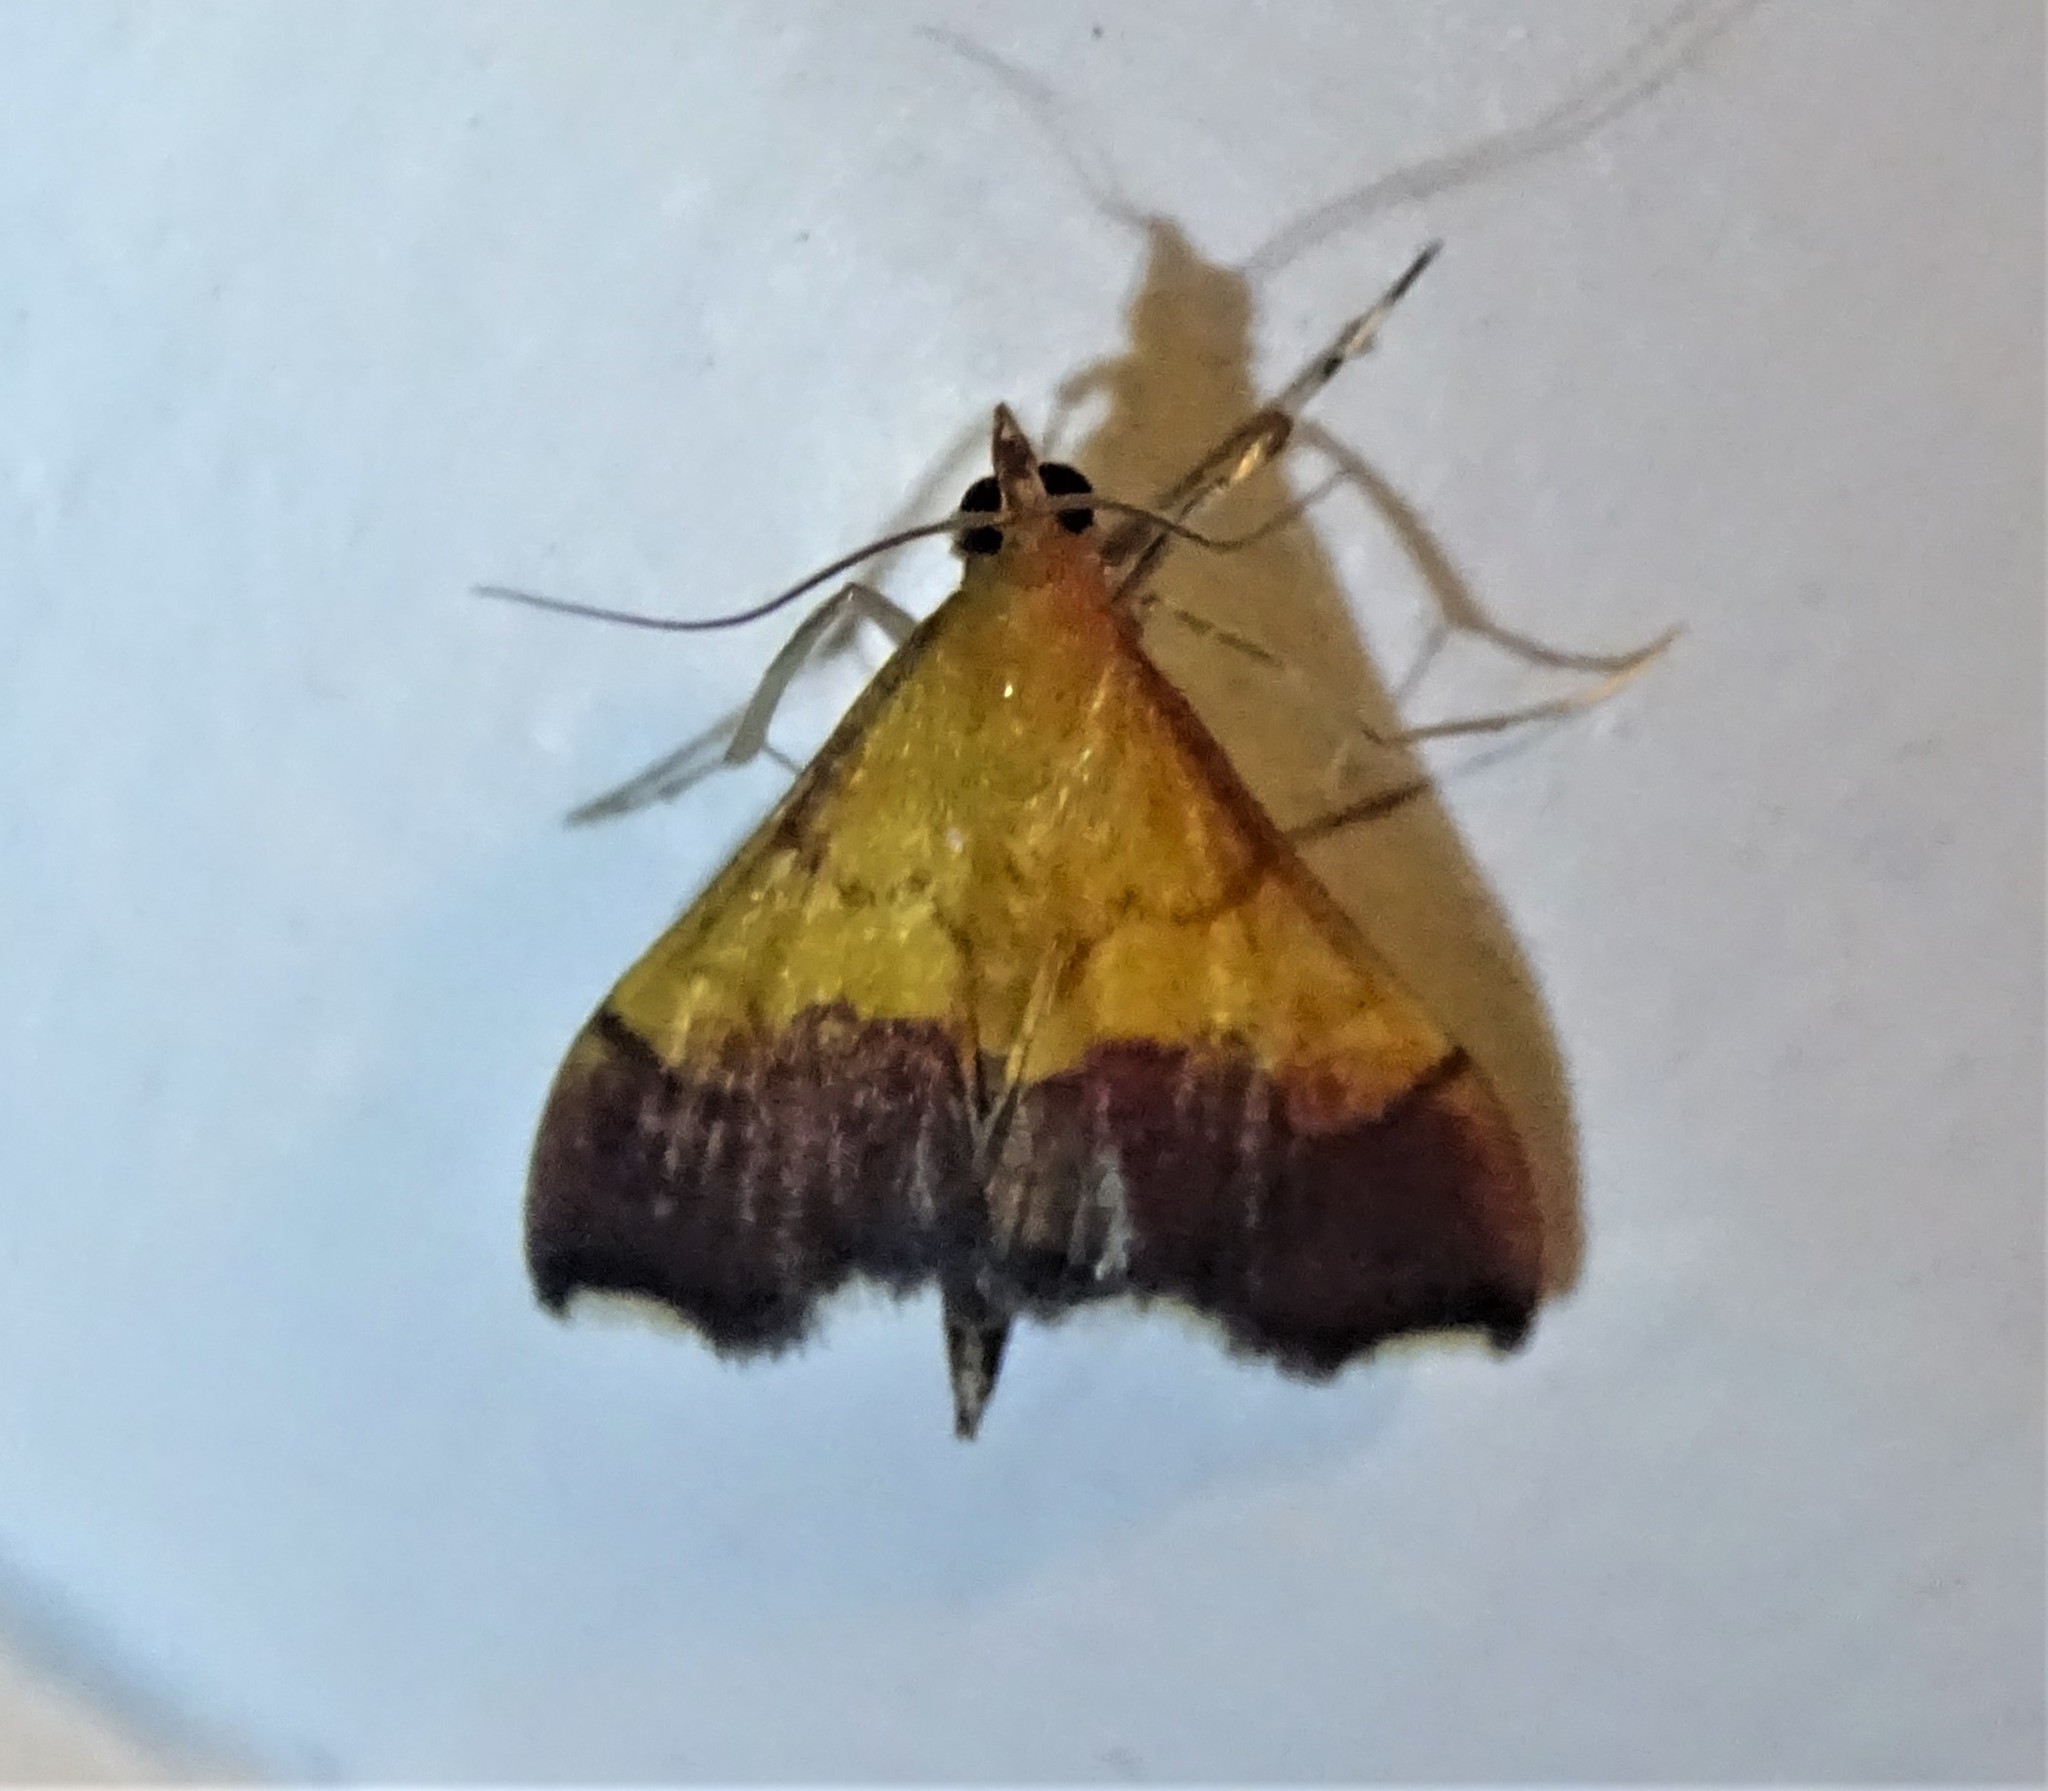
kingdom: Animalia
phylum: Arthropoda
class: Insecta
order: Lepidoptera
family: Crambidae
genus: Pyrausta
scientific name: Pyrausta bicoloralis
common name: Bicolored pyrausta moth
